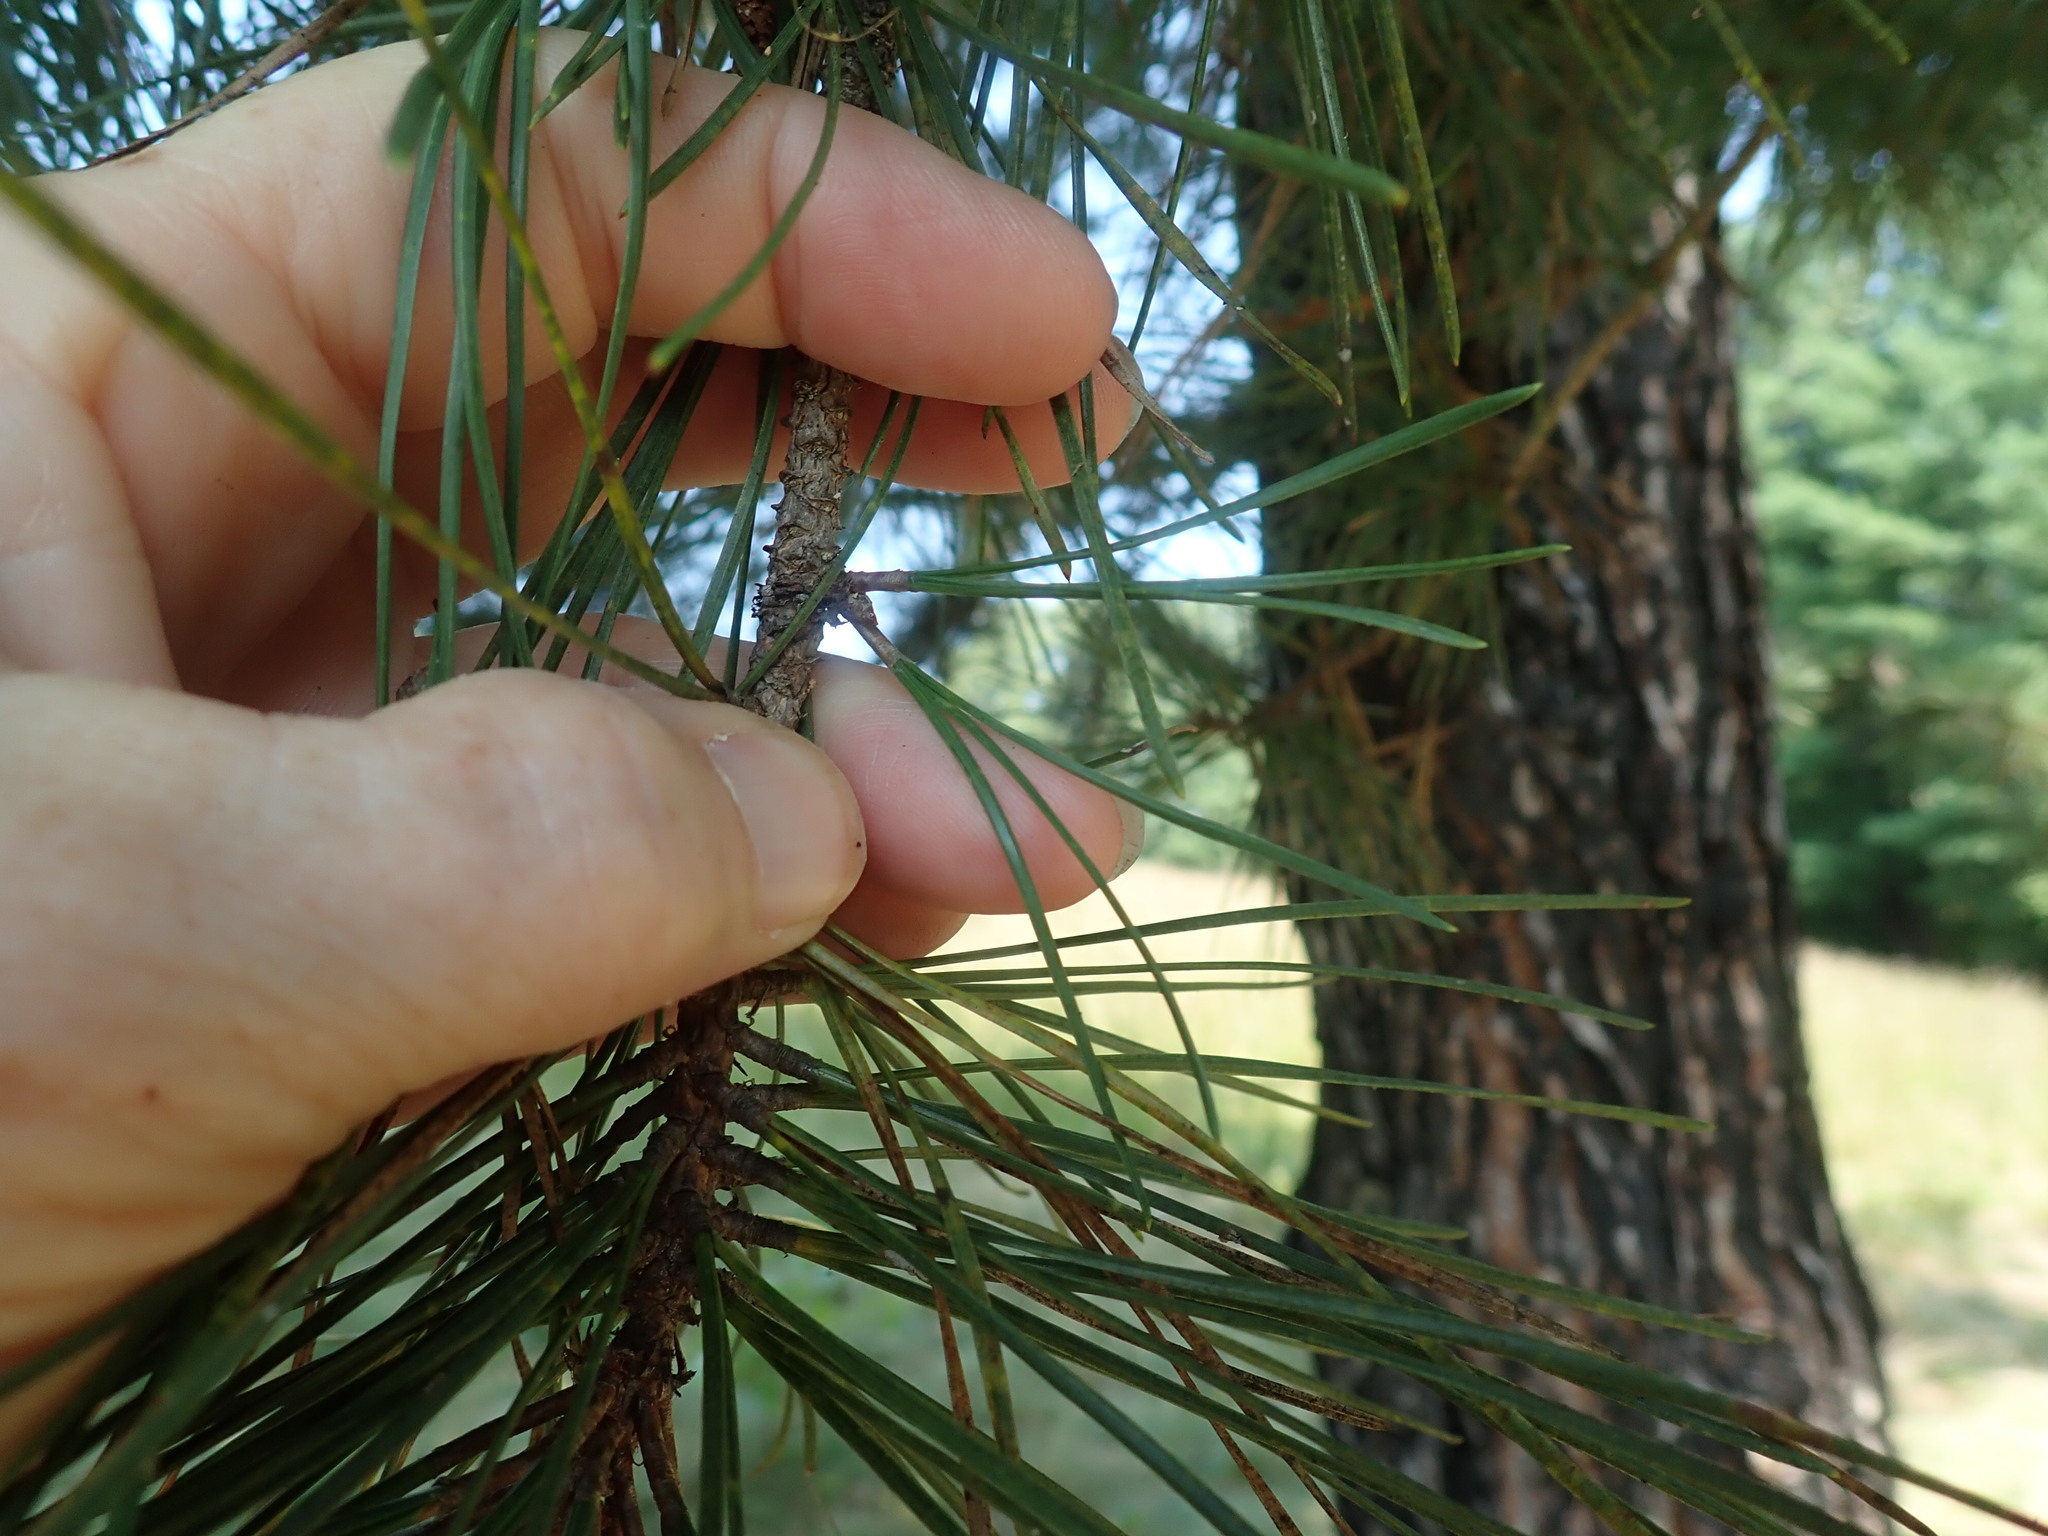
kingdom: Plantae
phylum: Tracheophyta
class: Pinopsida
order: Pinales
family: Pinaceae
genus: Pinus
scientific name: Pinus rigida
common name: Pitch pine
